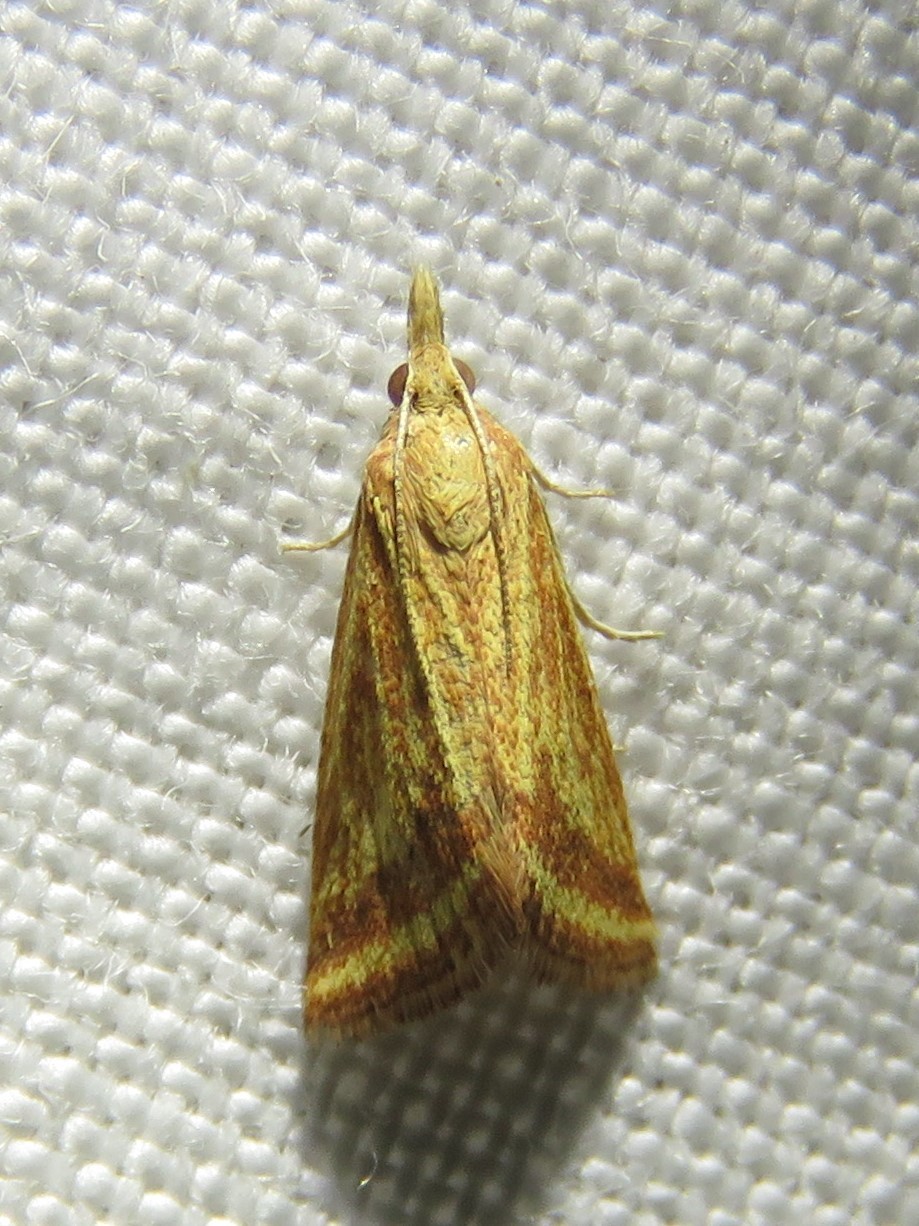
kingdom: Animalia
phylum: Arthropoda
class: Insecta
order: Lepidoptera
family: Crambidae
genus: Microtheoris
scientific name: Microtheoris ophionalis
